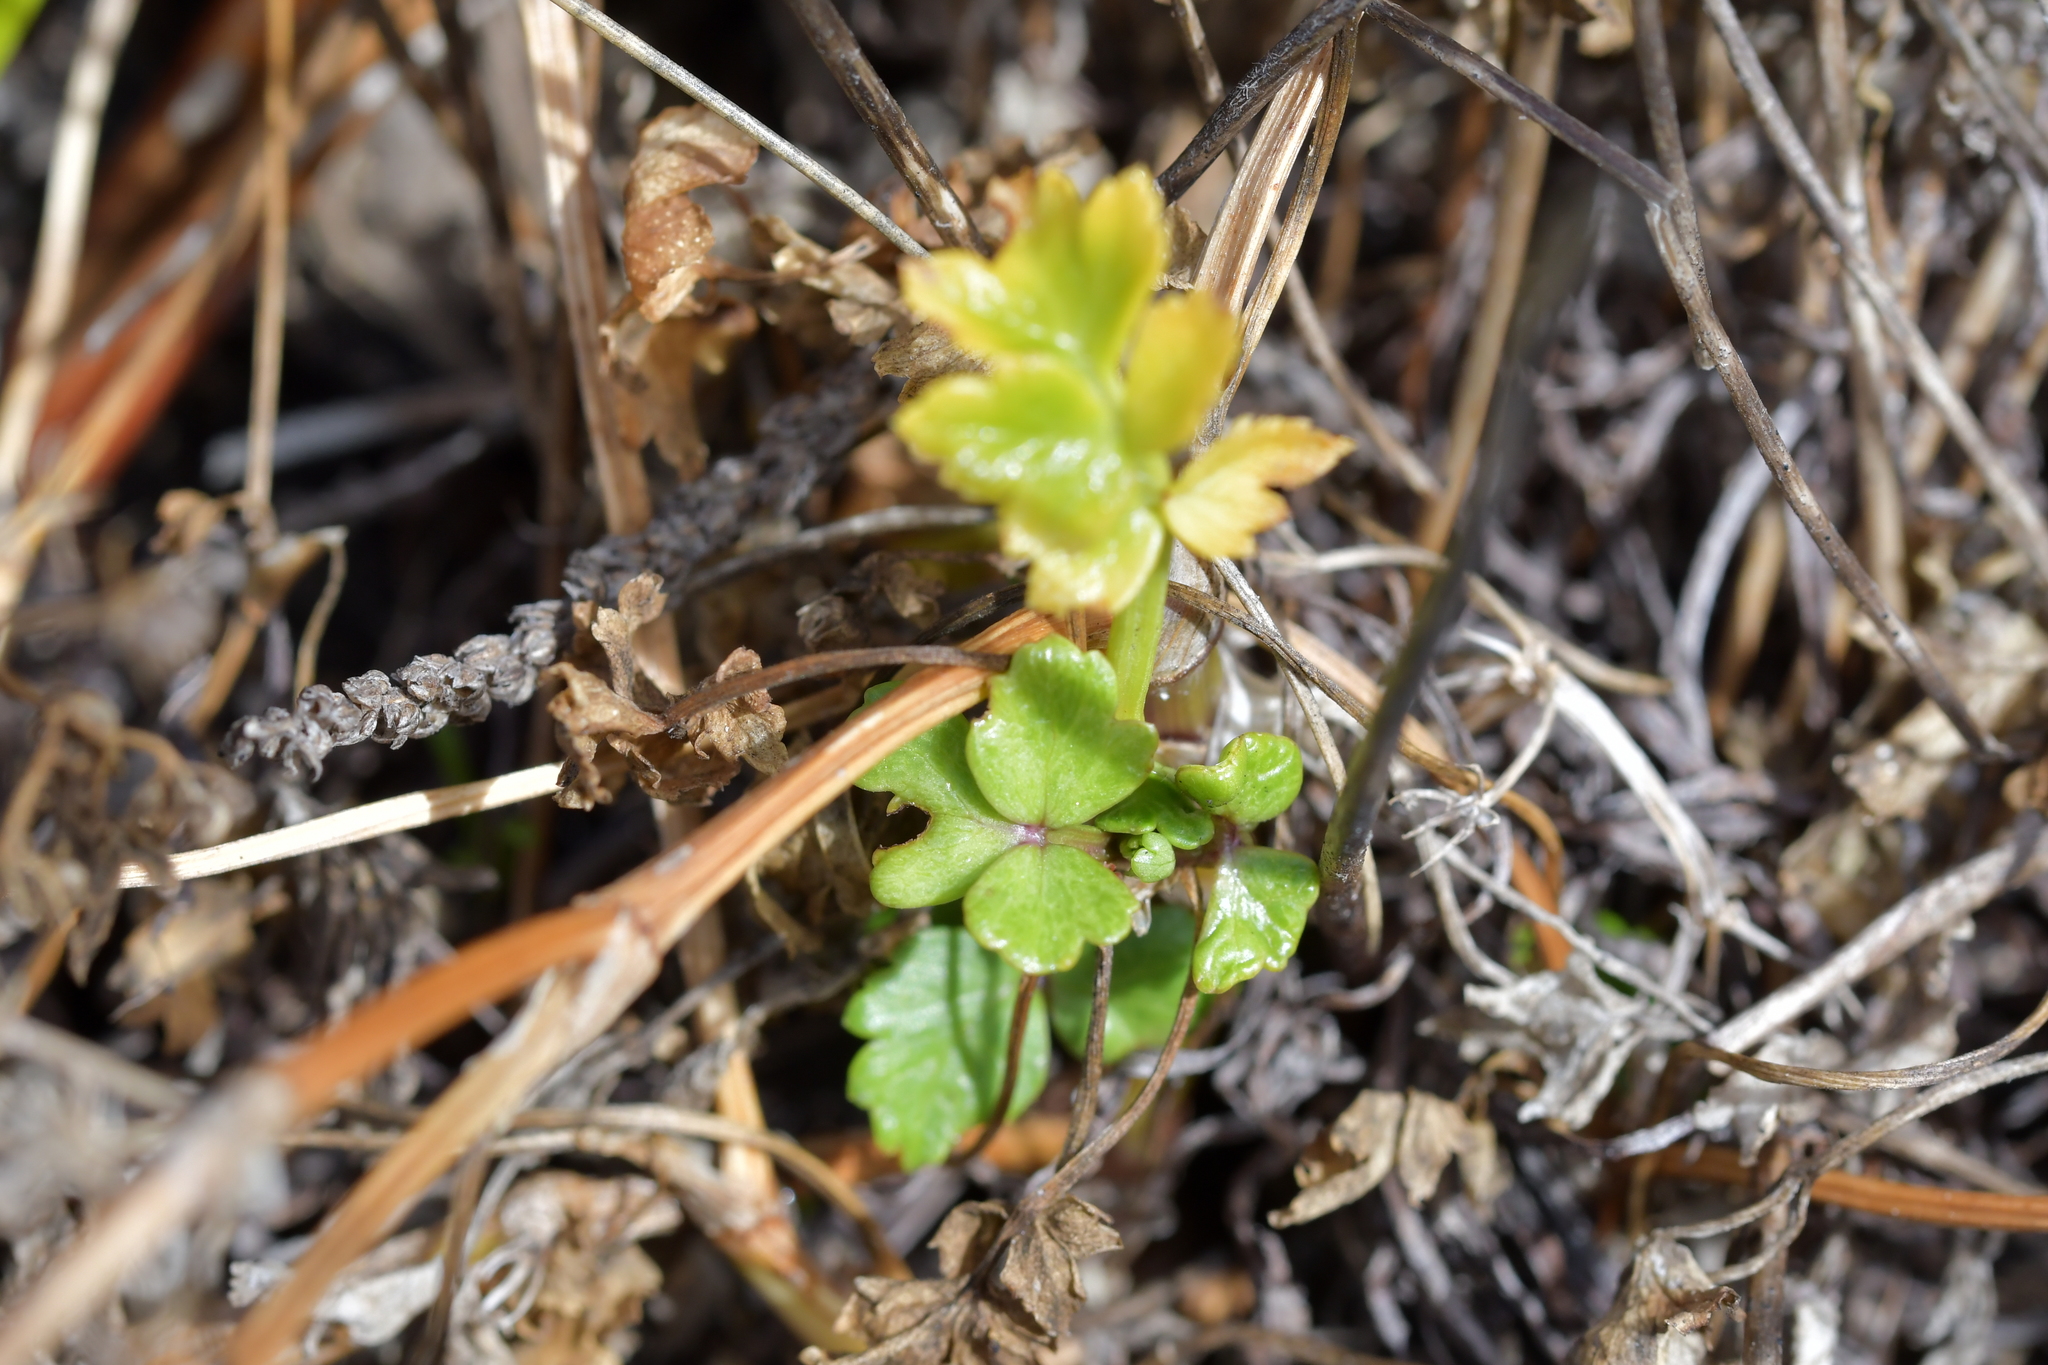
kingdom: Plantae
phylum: Tracheophyta
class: Magnoliopsida
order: Apiales
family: Apiaceae
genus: Apium
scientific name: Apium prostratum
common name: Prostrate marshwort
